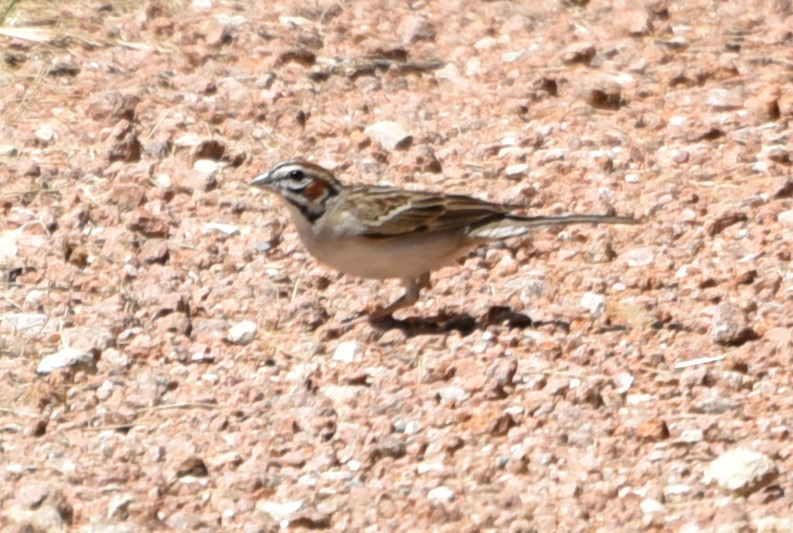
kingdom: Animalia
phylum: Chordata
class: Aves
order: Passeriformes
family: Passerellidae
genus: Chondestes
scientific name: Chondestes grammacus
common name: Lark sparrow
